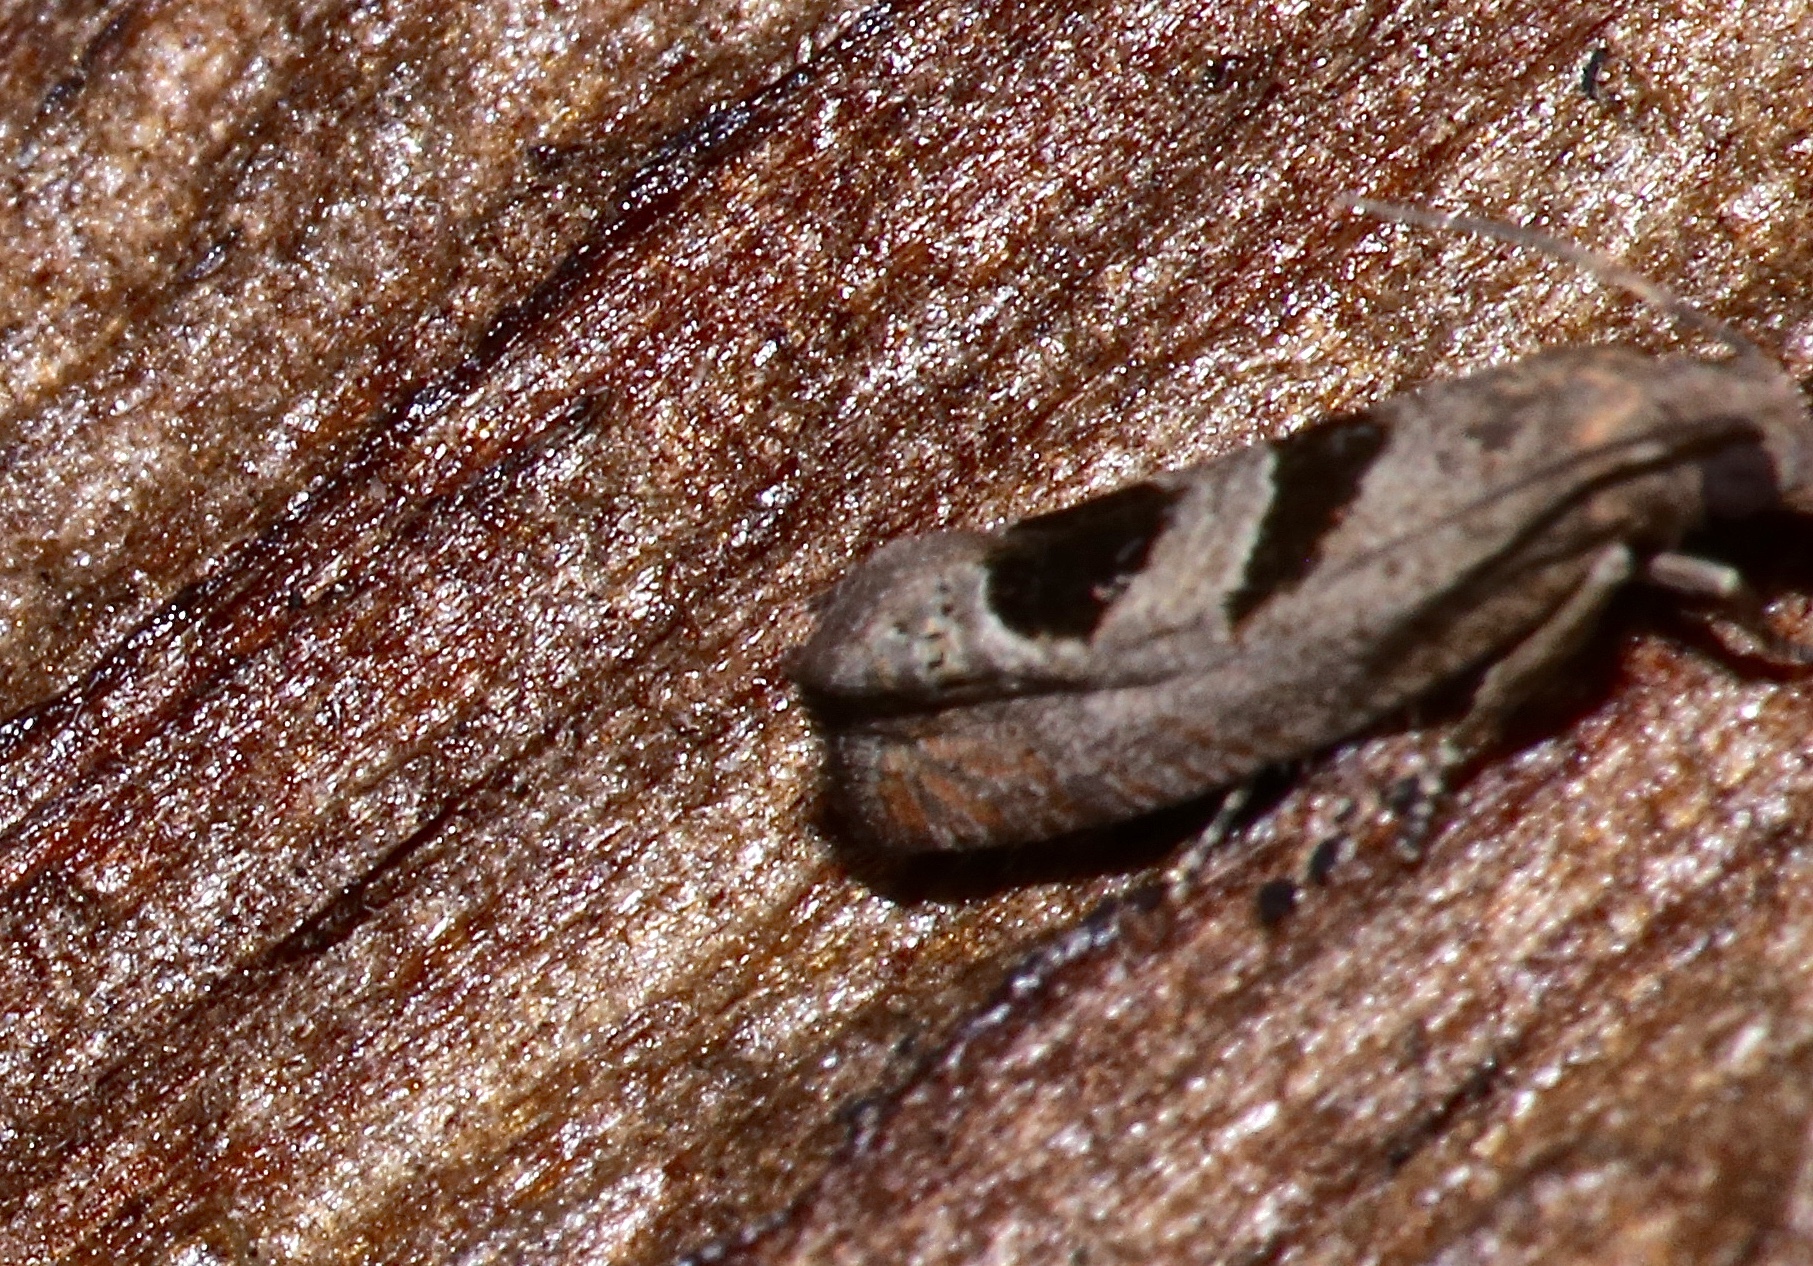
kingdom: Animalia
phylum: Arthropoda
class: Insecta
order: Lepidoptera
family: Tortricidae
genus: Eucosma
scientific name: Eucosma tomonana
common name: Aster-head eucosma moth
